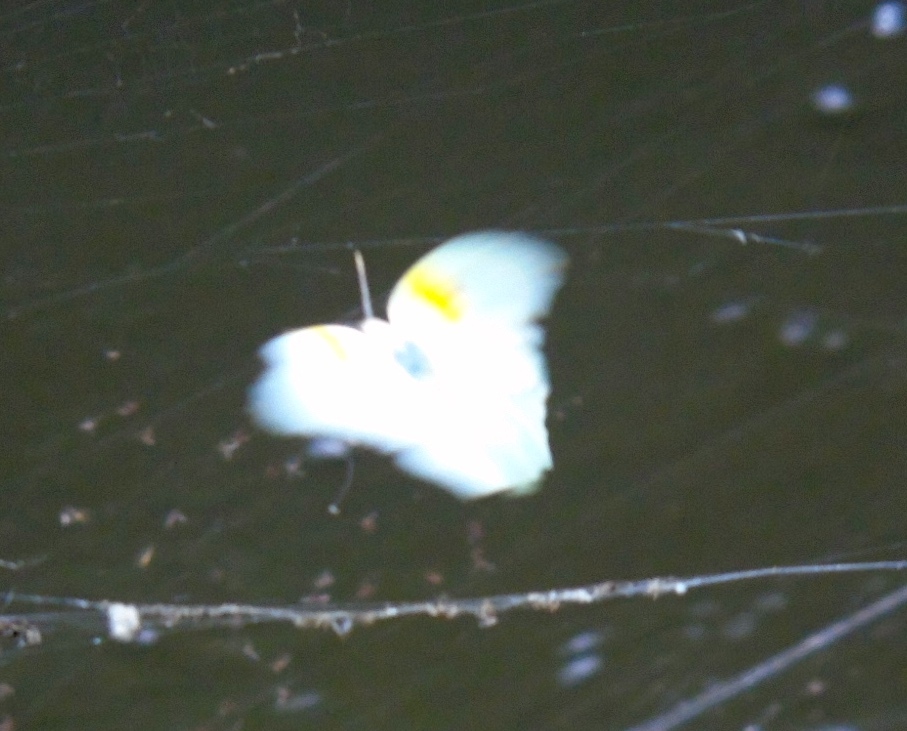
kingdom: Animalia
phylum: Arthropoda
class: Insecta
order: Lepidoptera
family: Pieridae
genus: Anteos
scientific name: Anteos clorinde
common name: White angled sulphur
